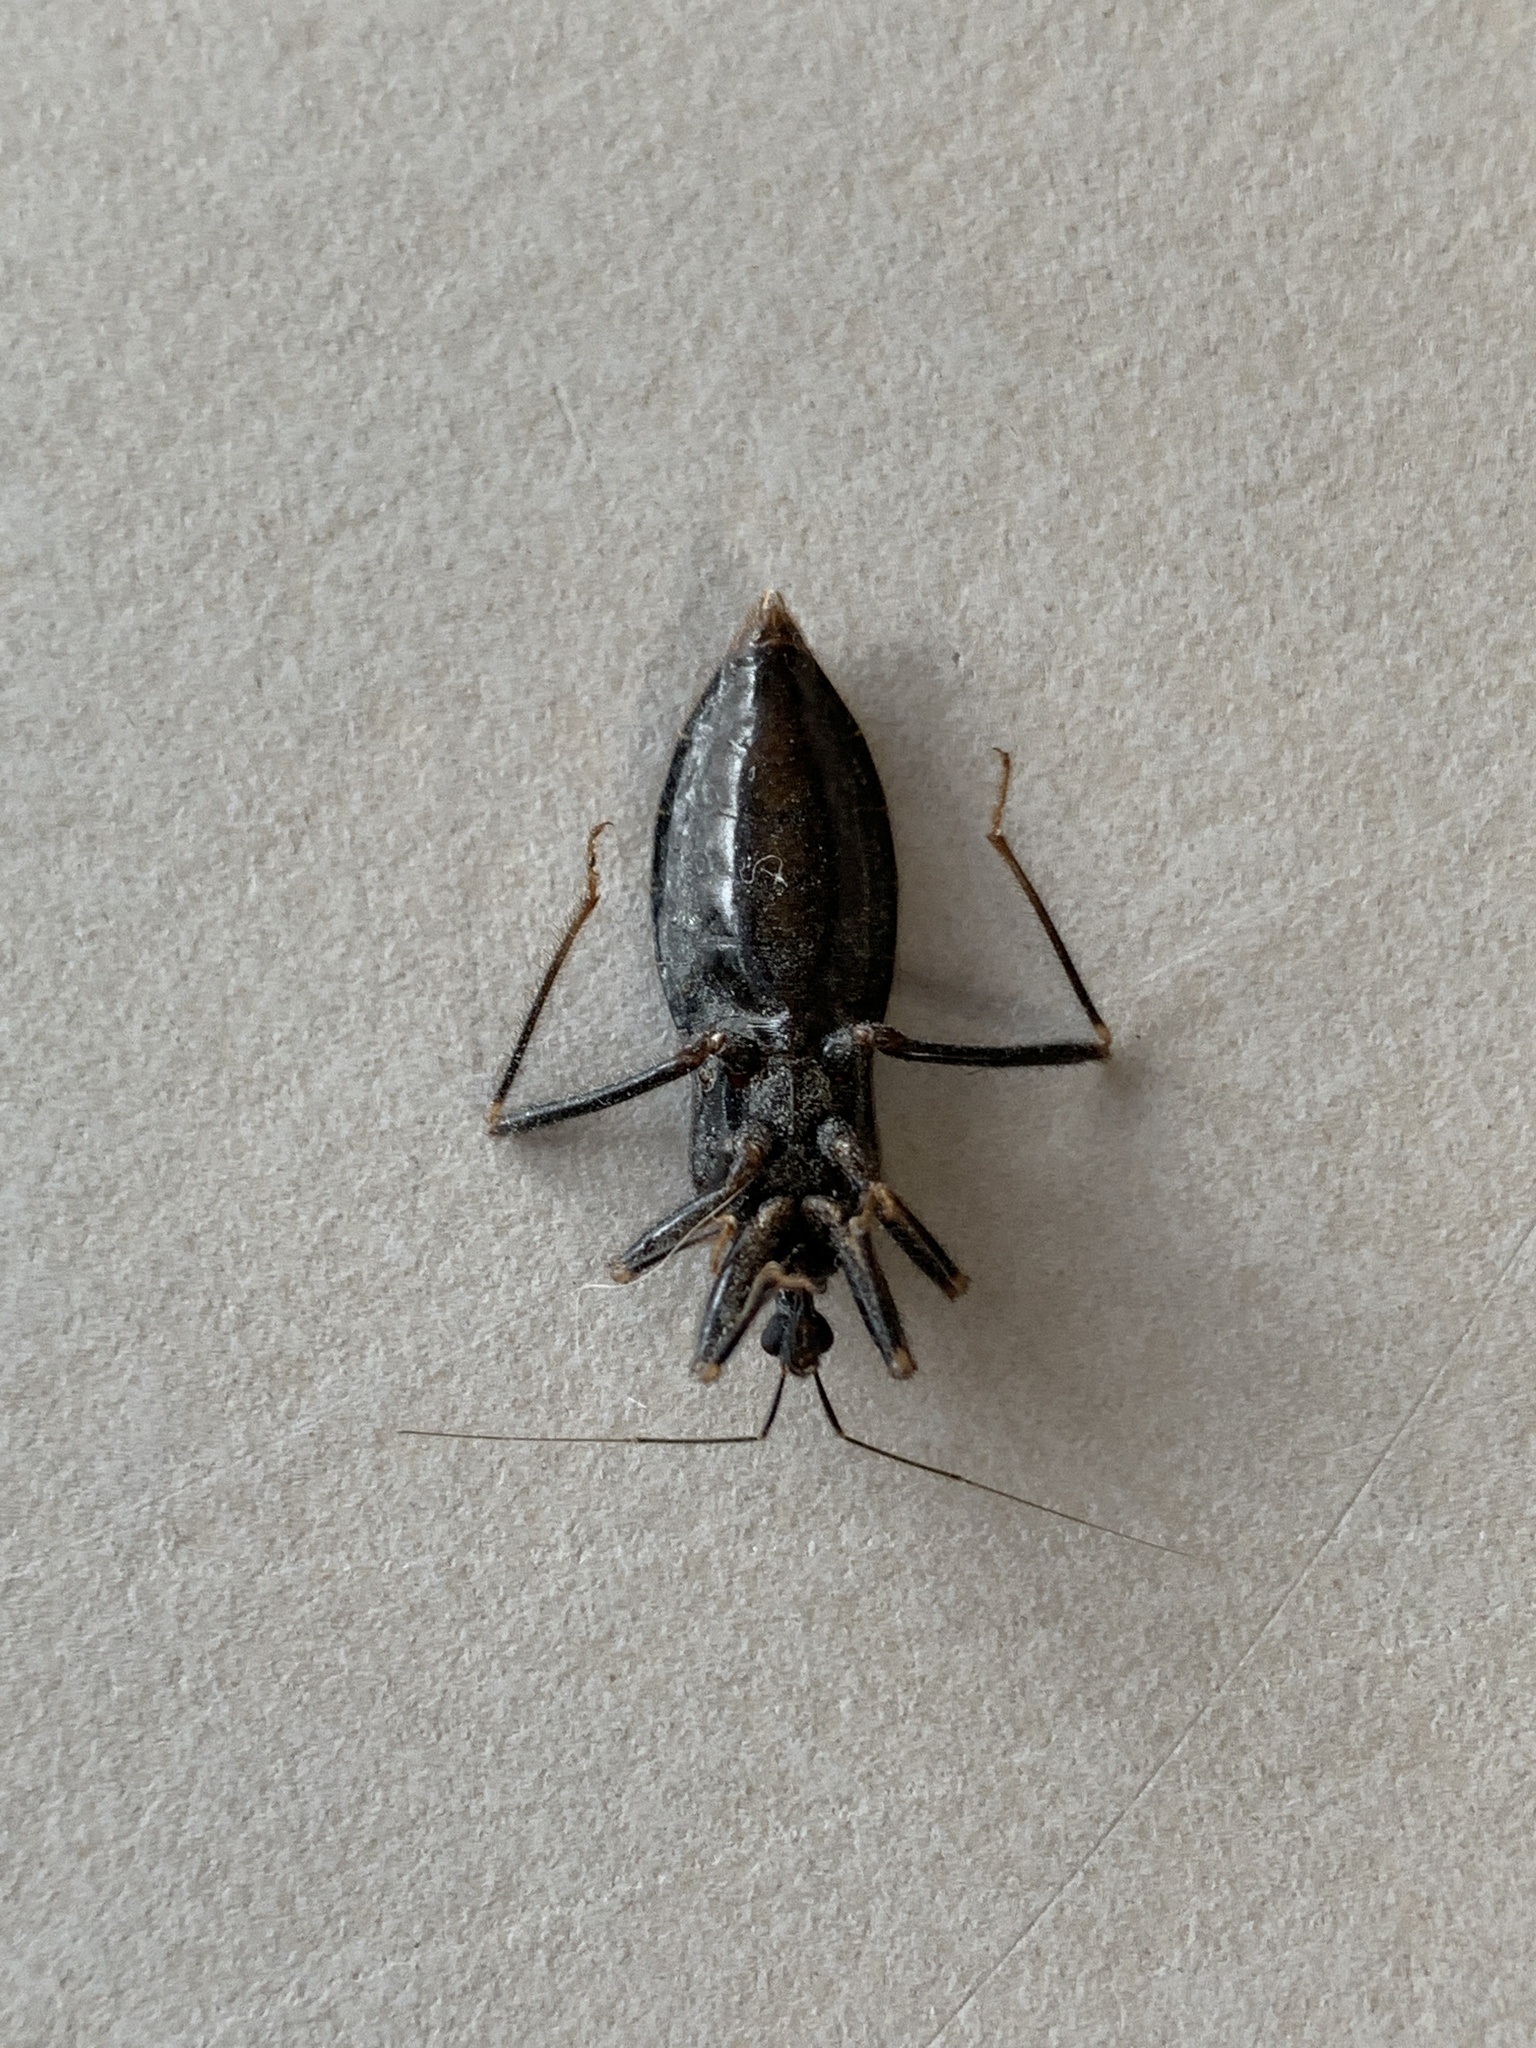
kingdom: Animalia
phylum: Arthropoda
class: Insecta
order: Hemiptera
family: Reduviidae
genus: Reduvius
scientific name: Reduvius personatus
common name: Masked hunter
